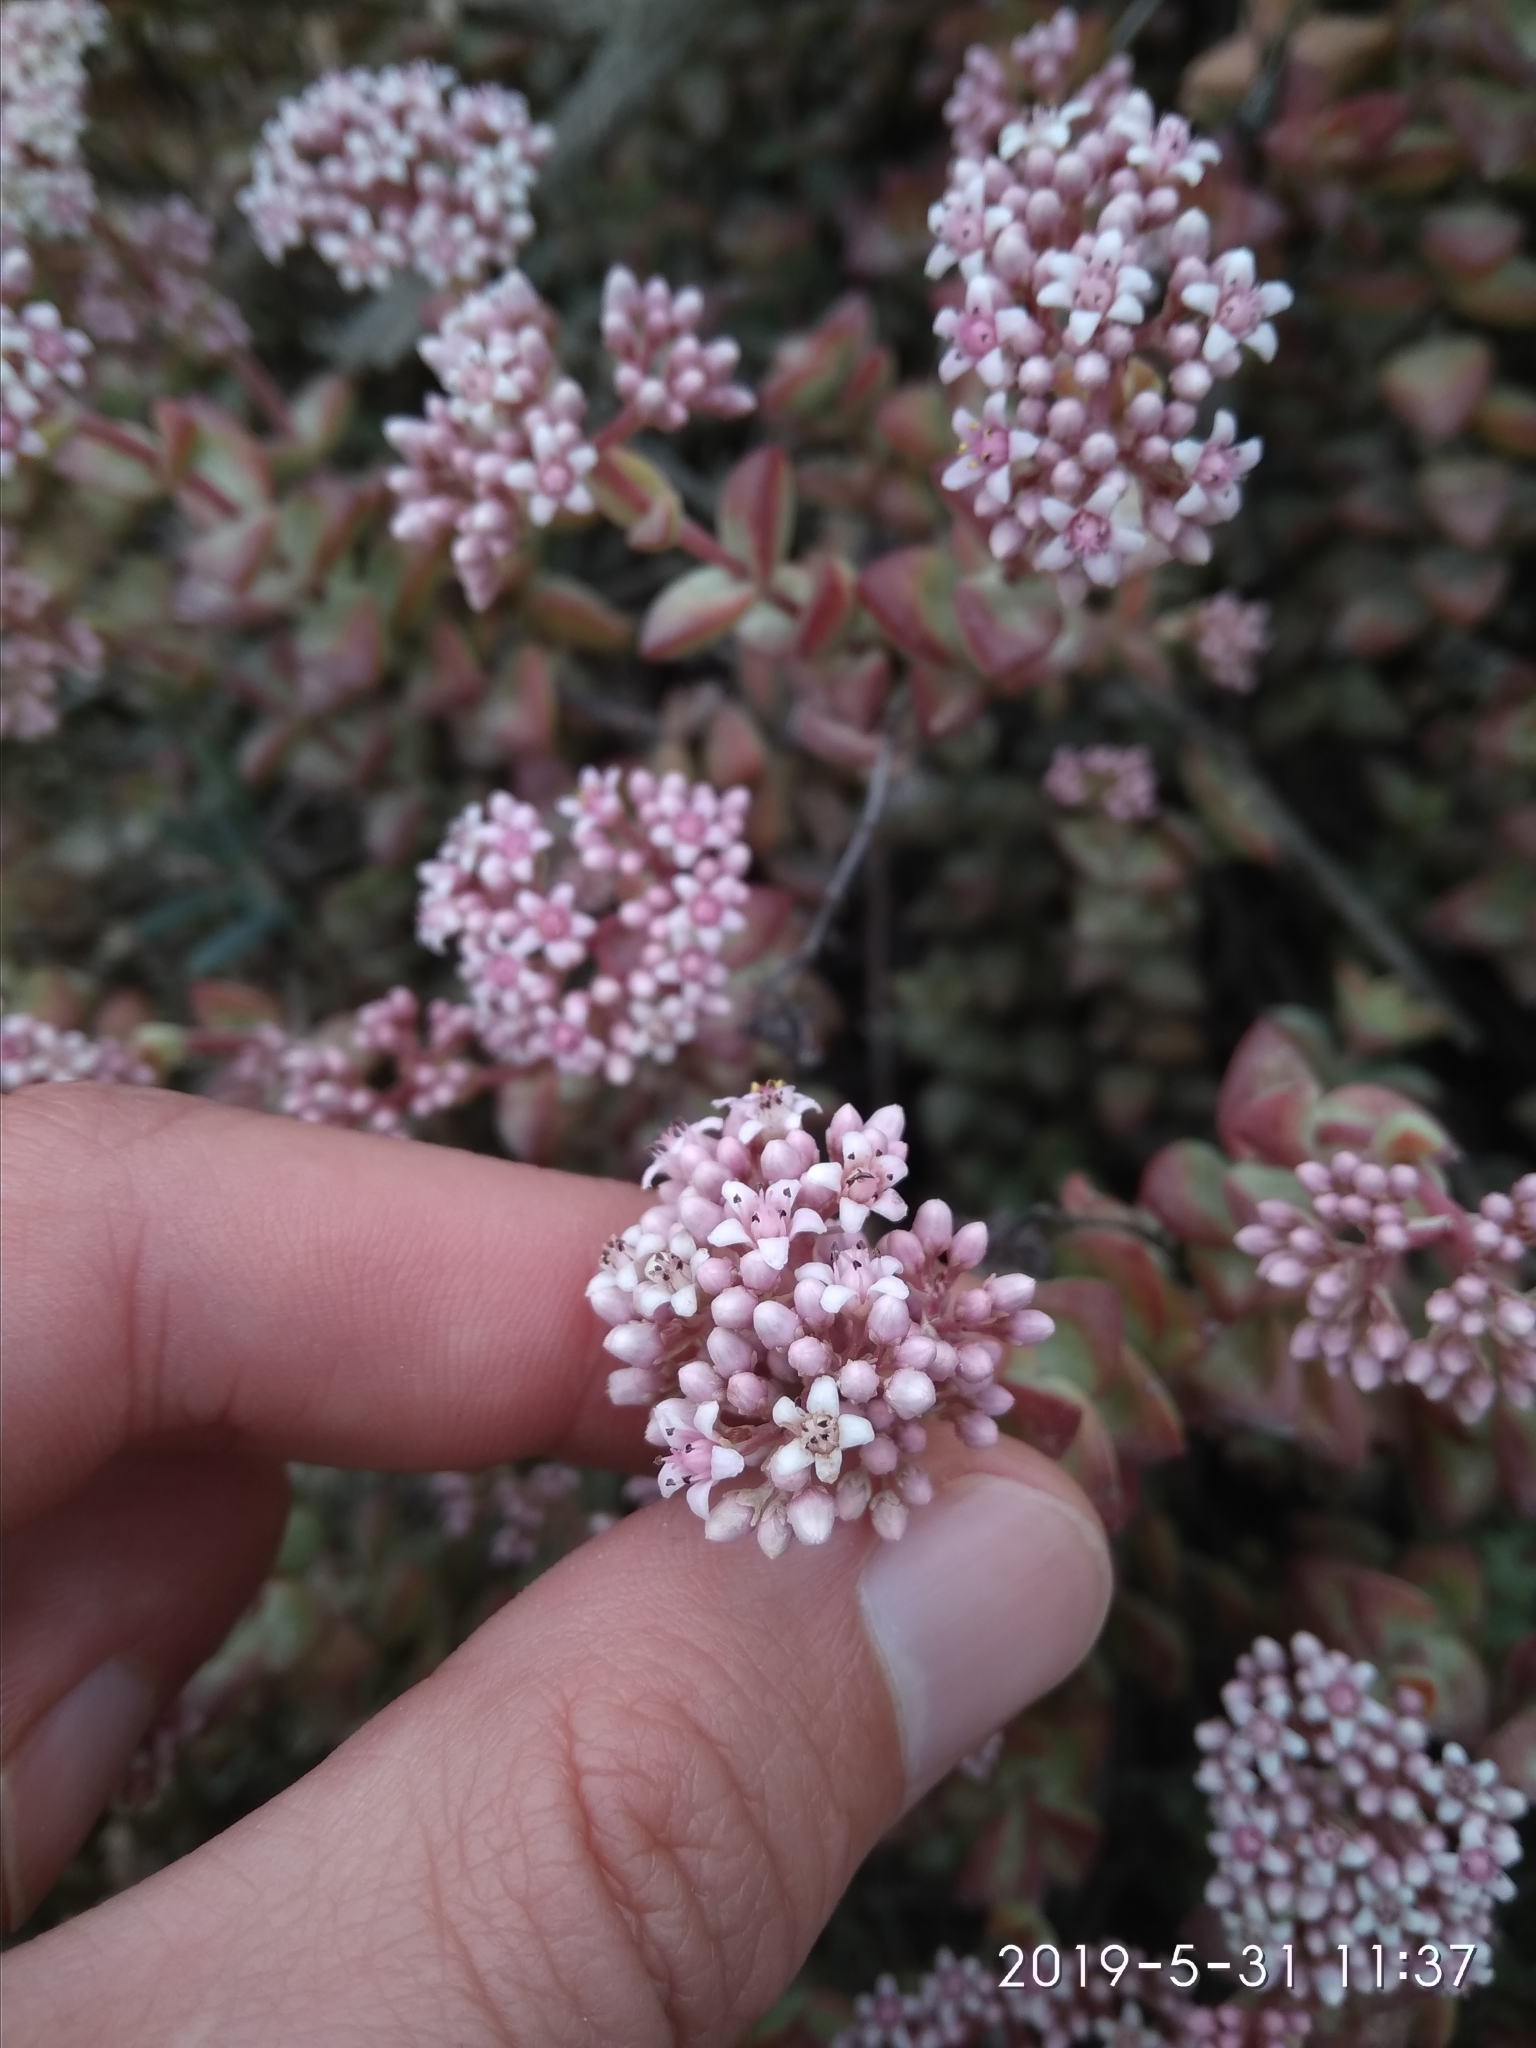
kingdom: Plantae
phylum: Tracheophyta
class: Magnoliopsida
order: Saxifragales
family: Crassulaceae
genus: Crassula
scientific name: Crassula rupestris
